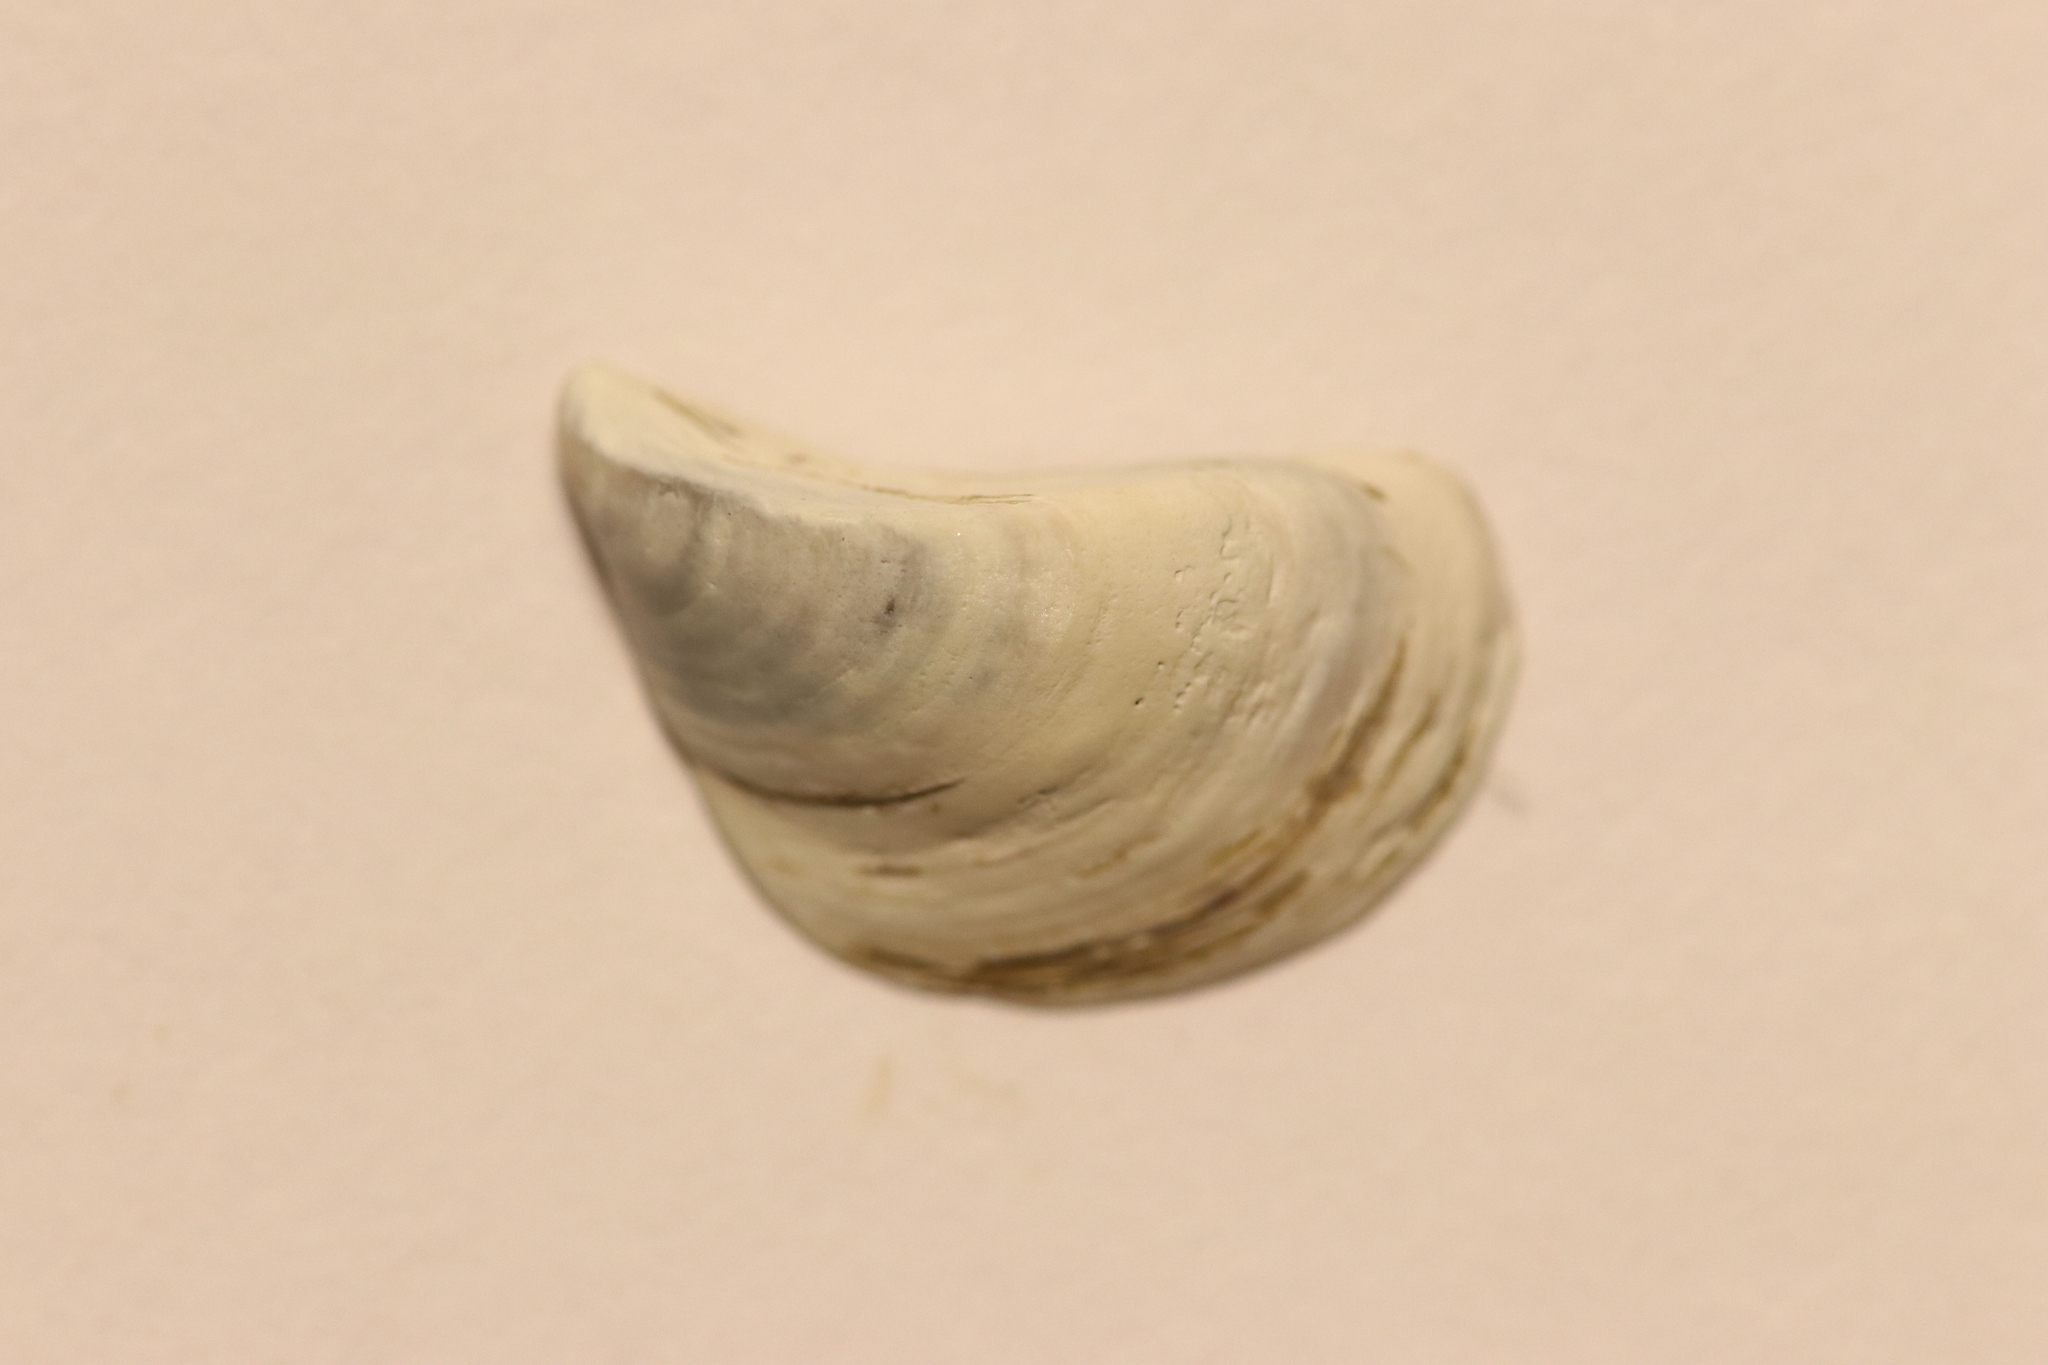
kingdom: Animalia
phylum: Mollusca
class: Bivalvia
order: Myida
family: Dreissenidae
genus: Dreissena
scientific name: Dreissena polymorpha
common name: Zebra mussel
